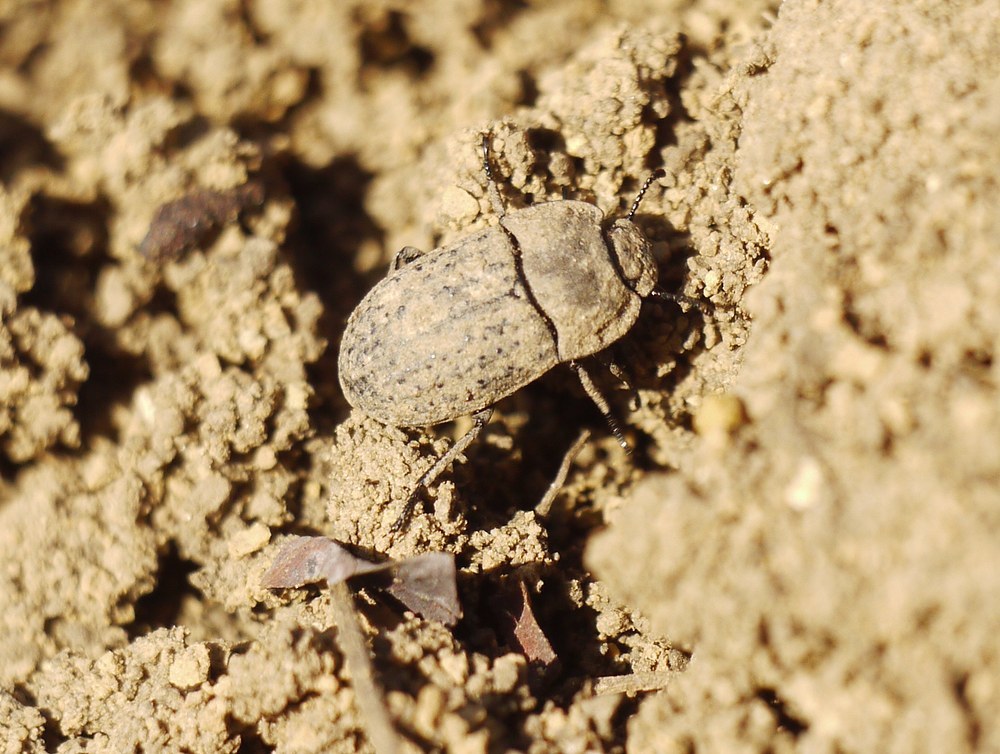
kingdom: Animalia
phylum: Arthropoda
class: Insecta
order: Coleoptera
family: Tenebrionidae
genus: Opatrum
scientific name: Opatrum sabulosum
